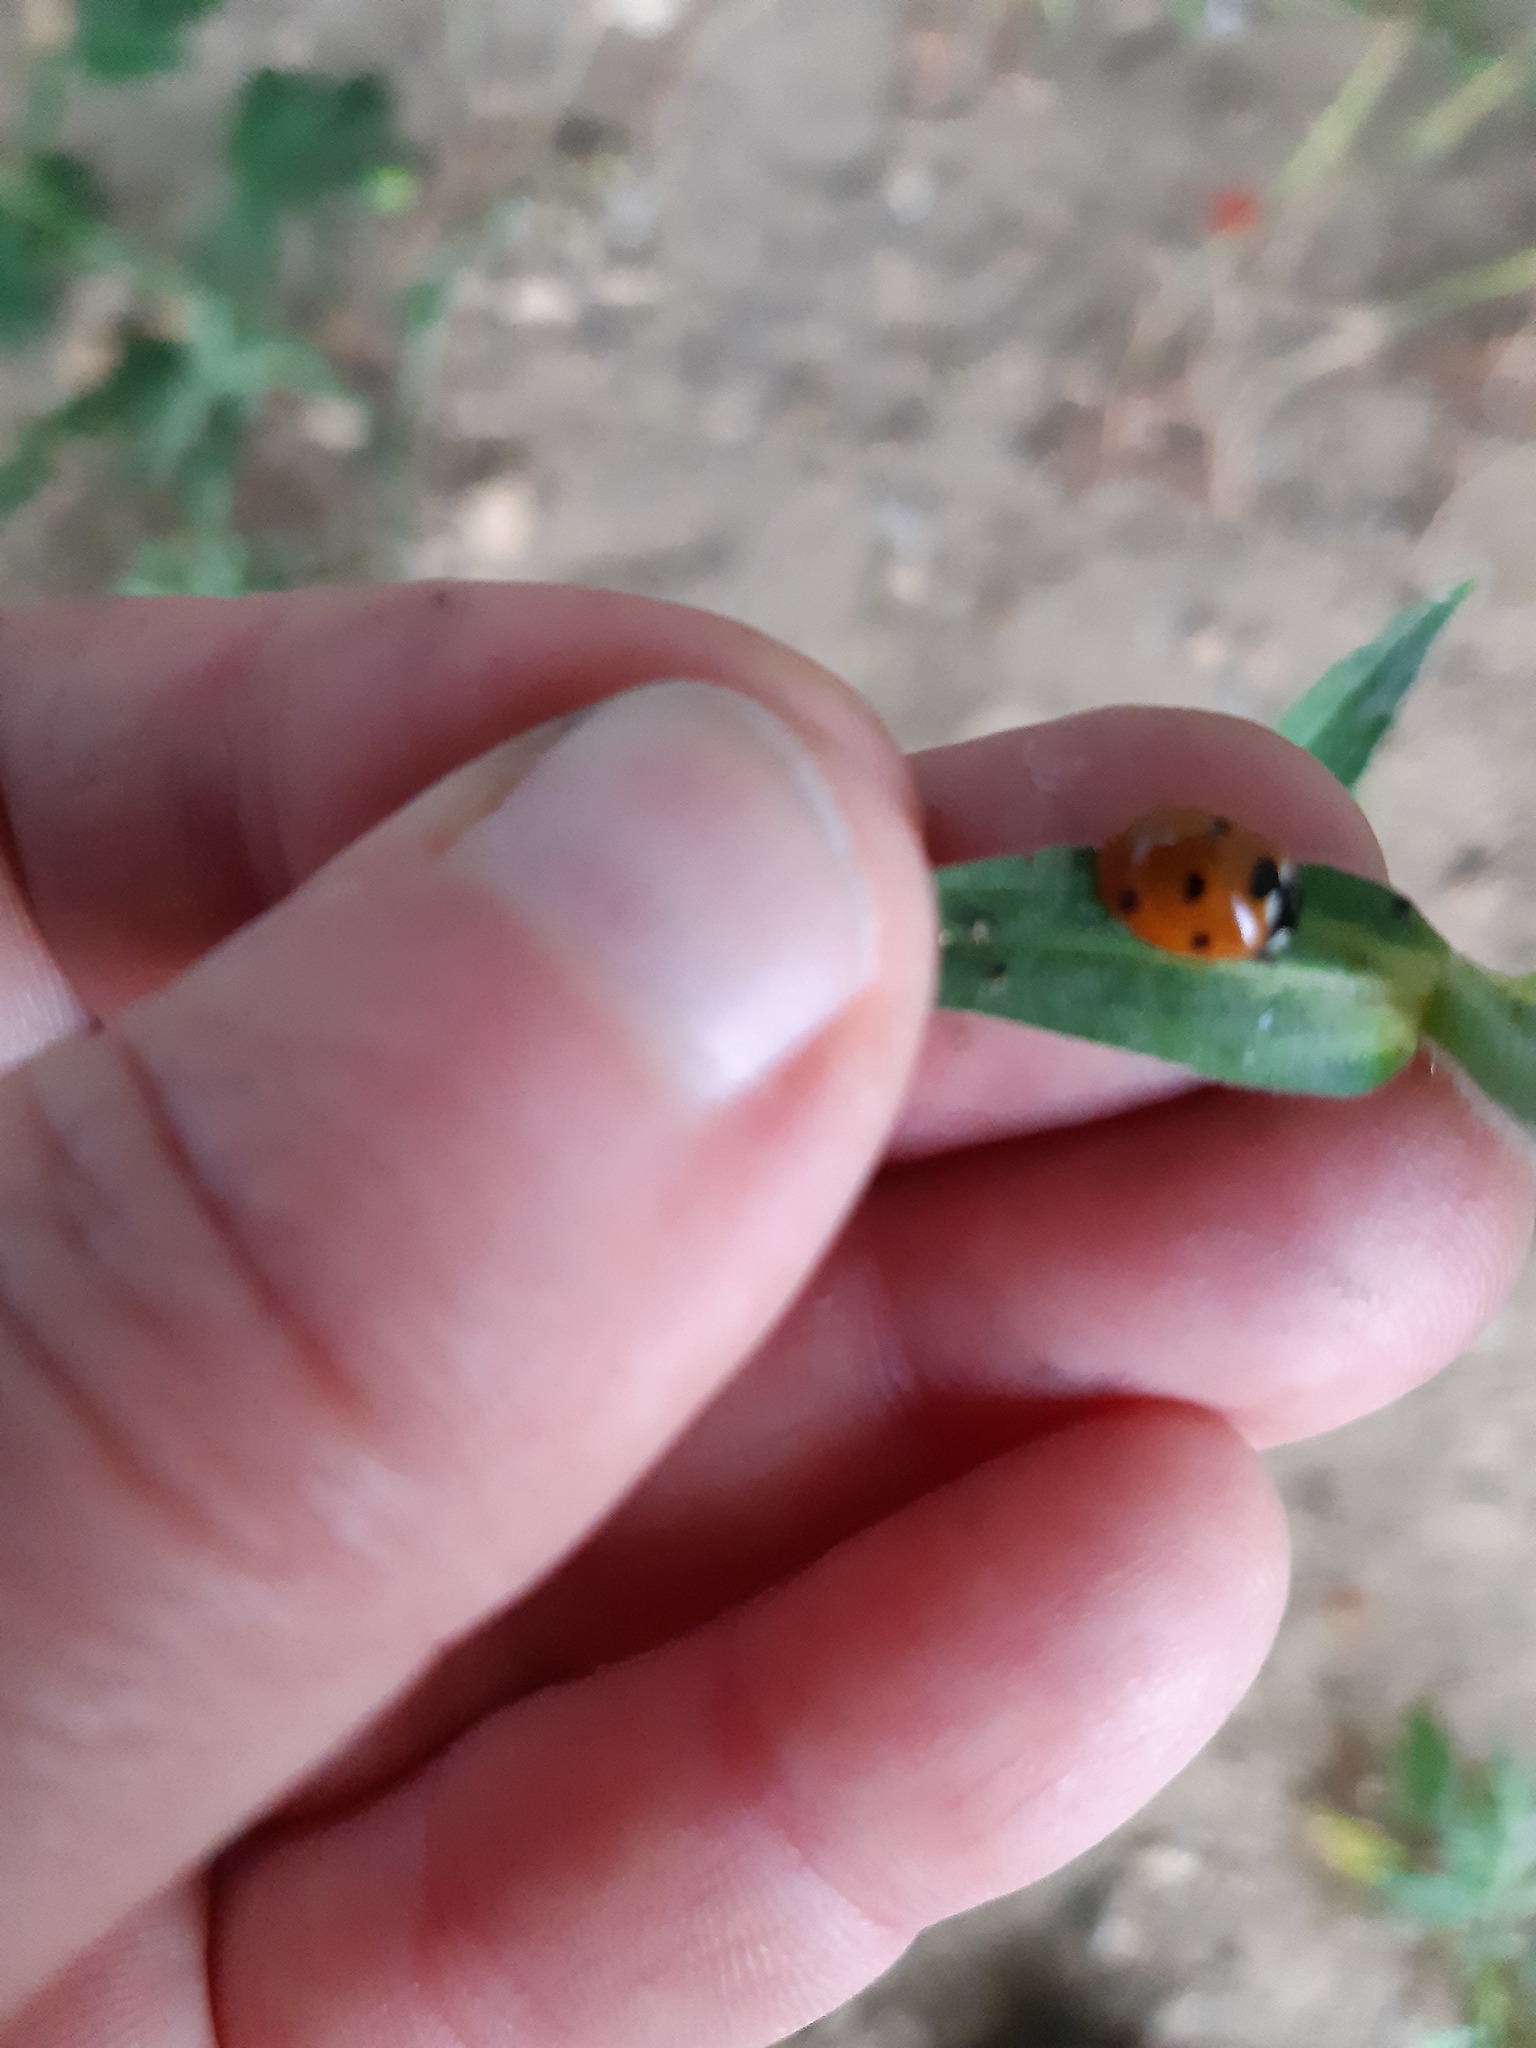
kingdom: Animalia
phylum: Arthropoda
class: Insecta
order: Coleoptera
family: Coccinellidae
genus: Coccinella
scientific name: Coccinella septempunctata
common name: Sevenspotted lady beetle
